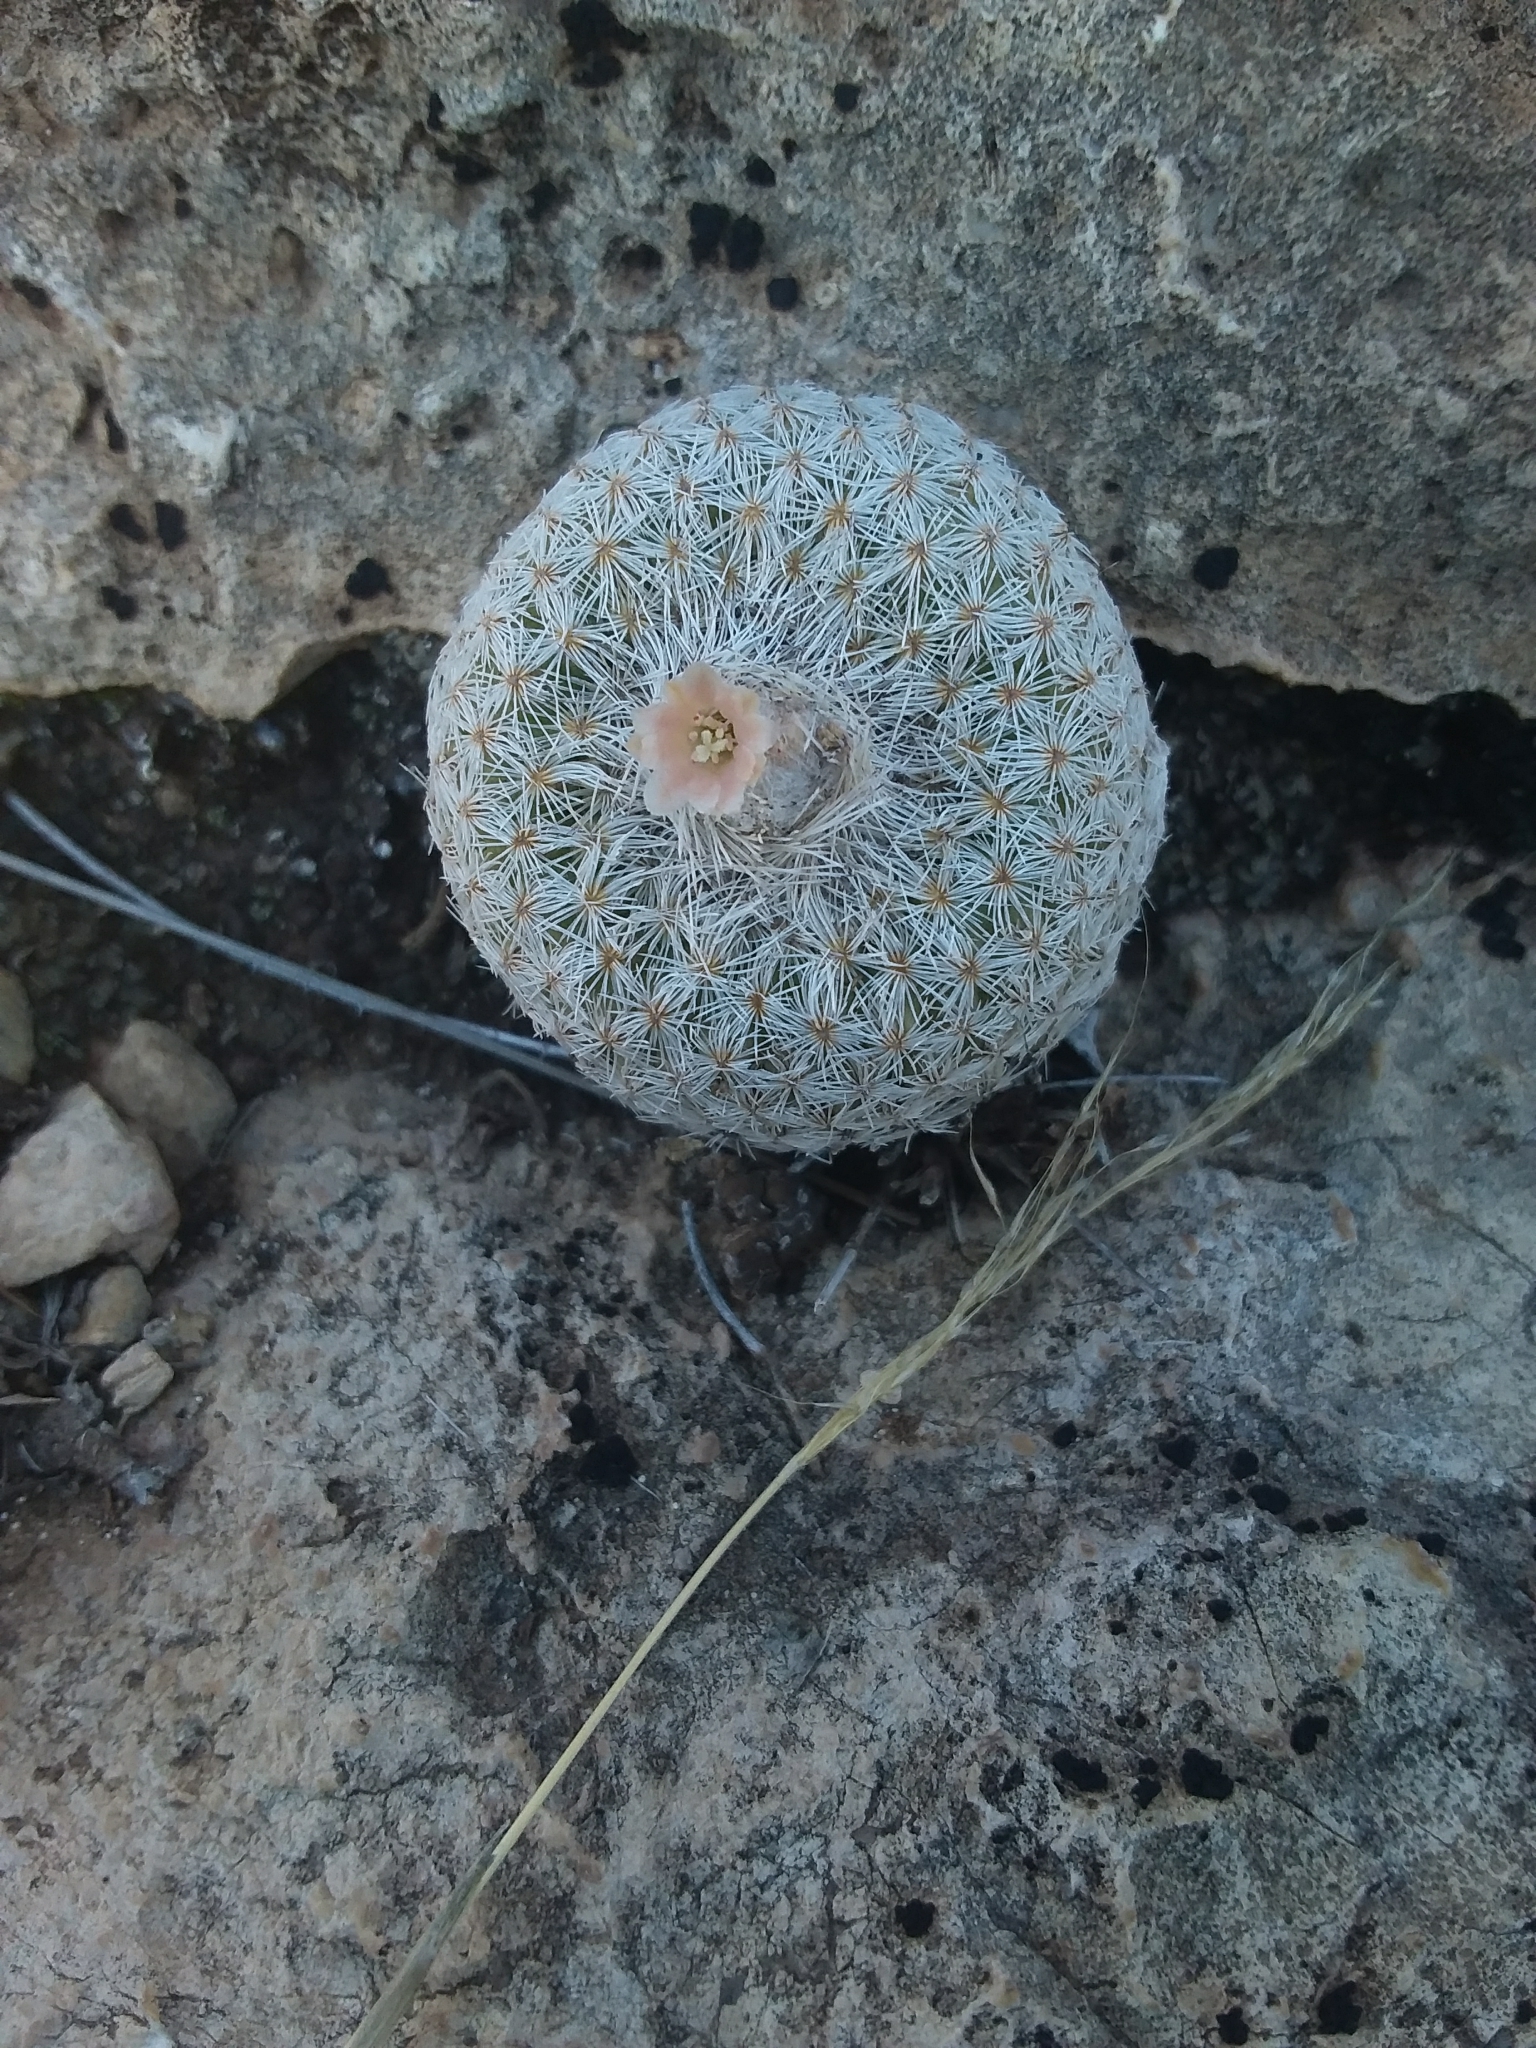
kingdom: Plantae
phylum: Tracheophyta
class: Magnoliopsida
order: Caryophyllales
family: Cactaceae
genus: Epithelantha
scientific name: Epithelantha micromeris
